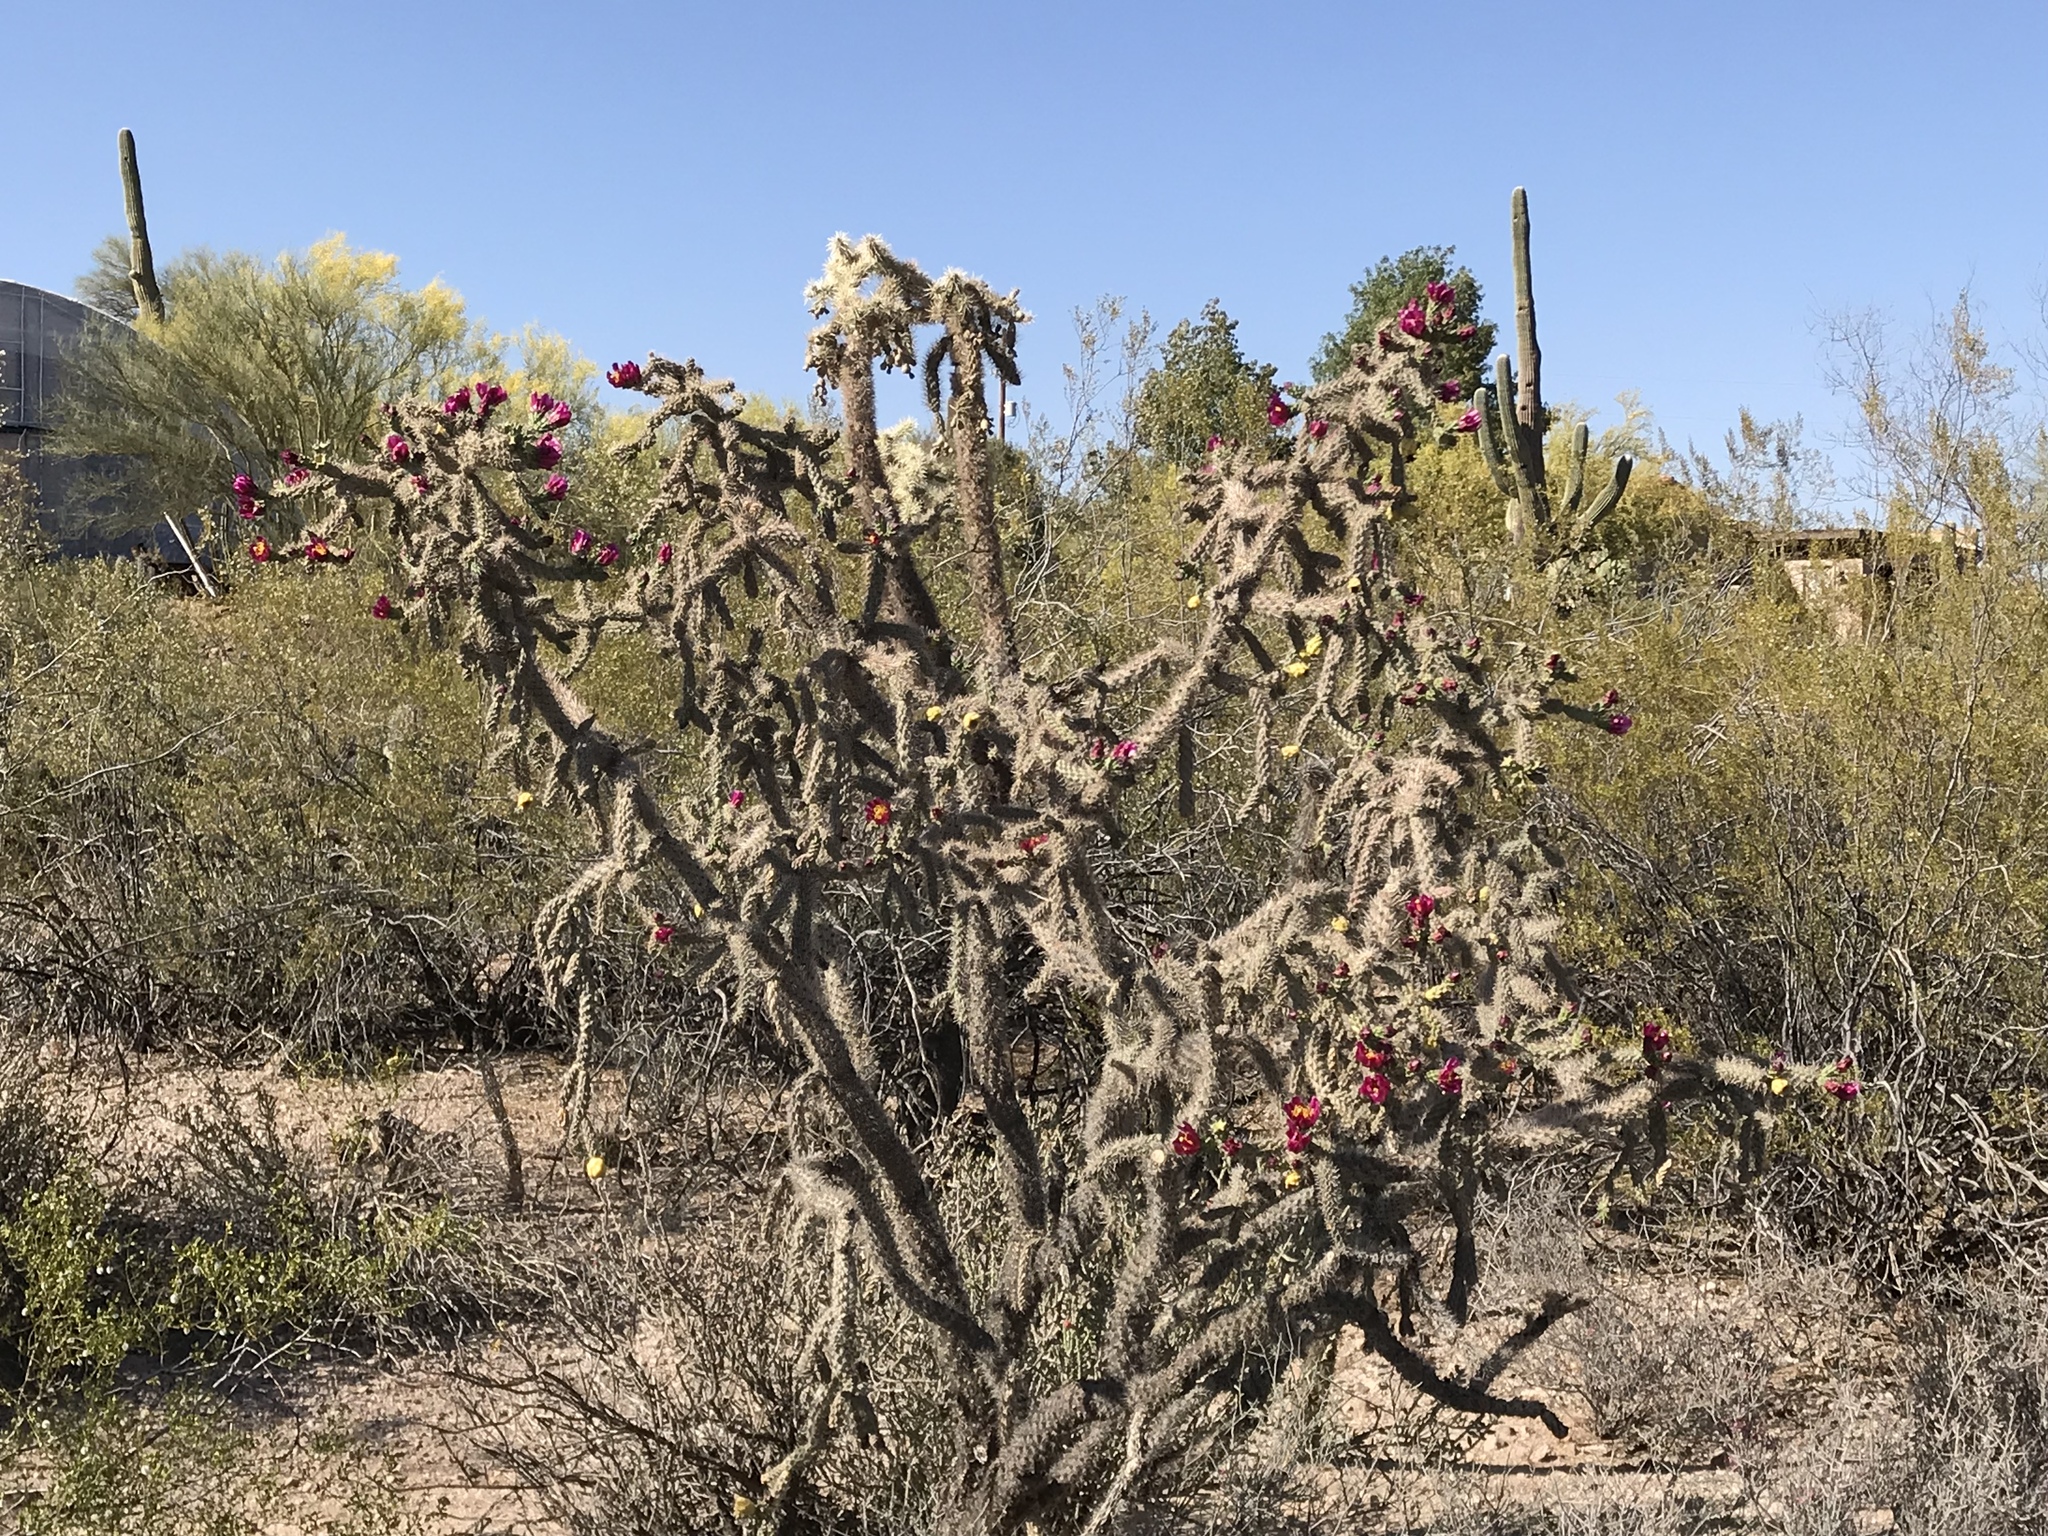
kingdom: Plantae
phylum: Tracheophyta
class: Magnoliopsida
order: Caryophyllales
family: Cactaceae
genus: Cylindropuntia
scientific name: Cylindropuntia imbricata
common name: Candelabrum cactus
